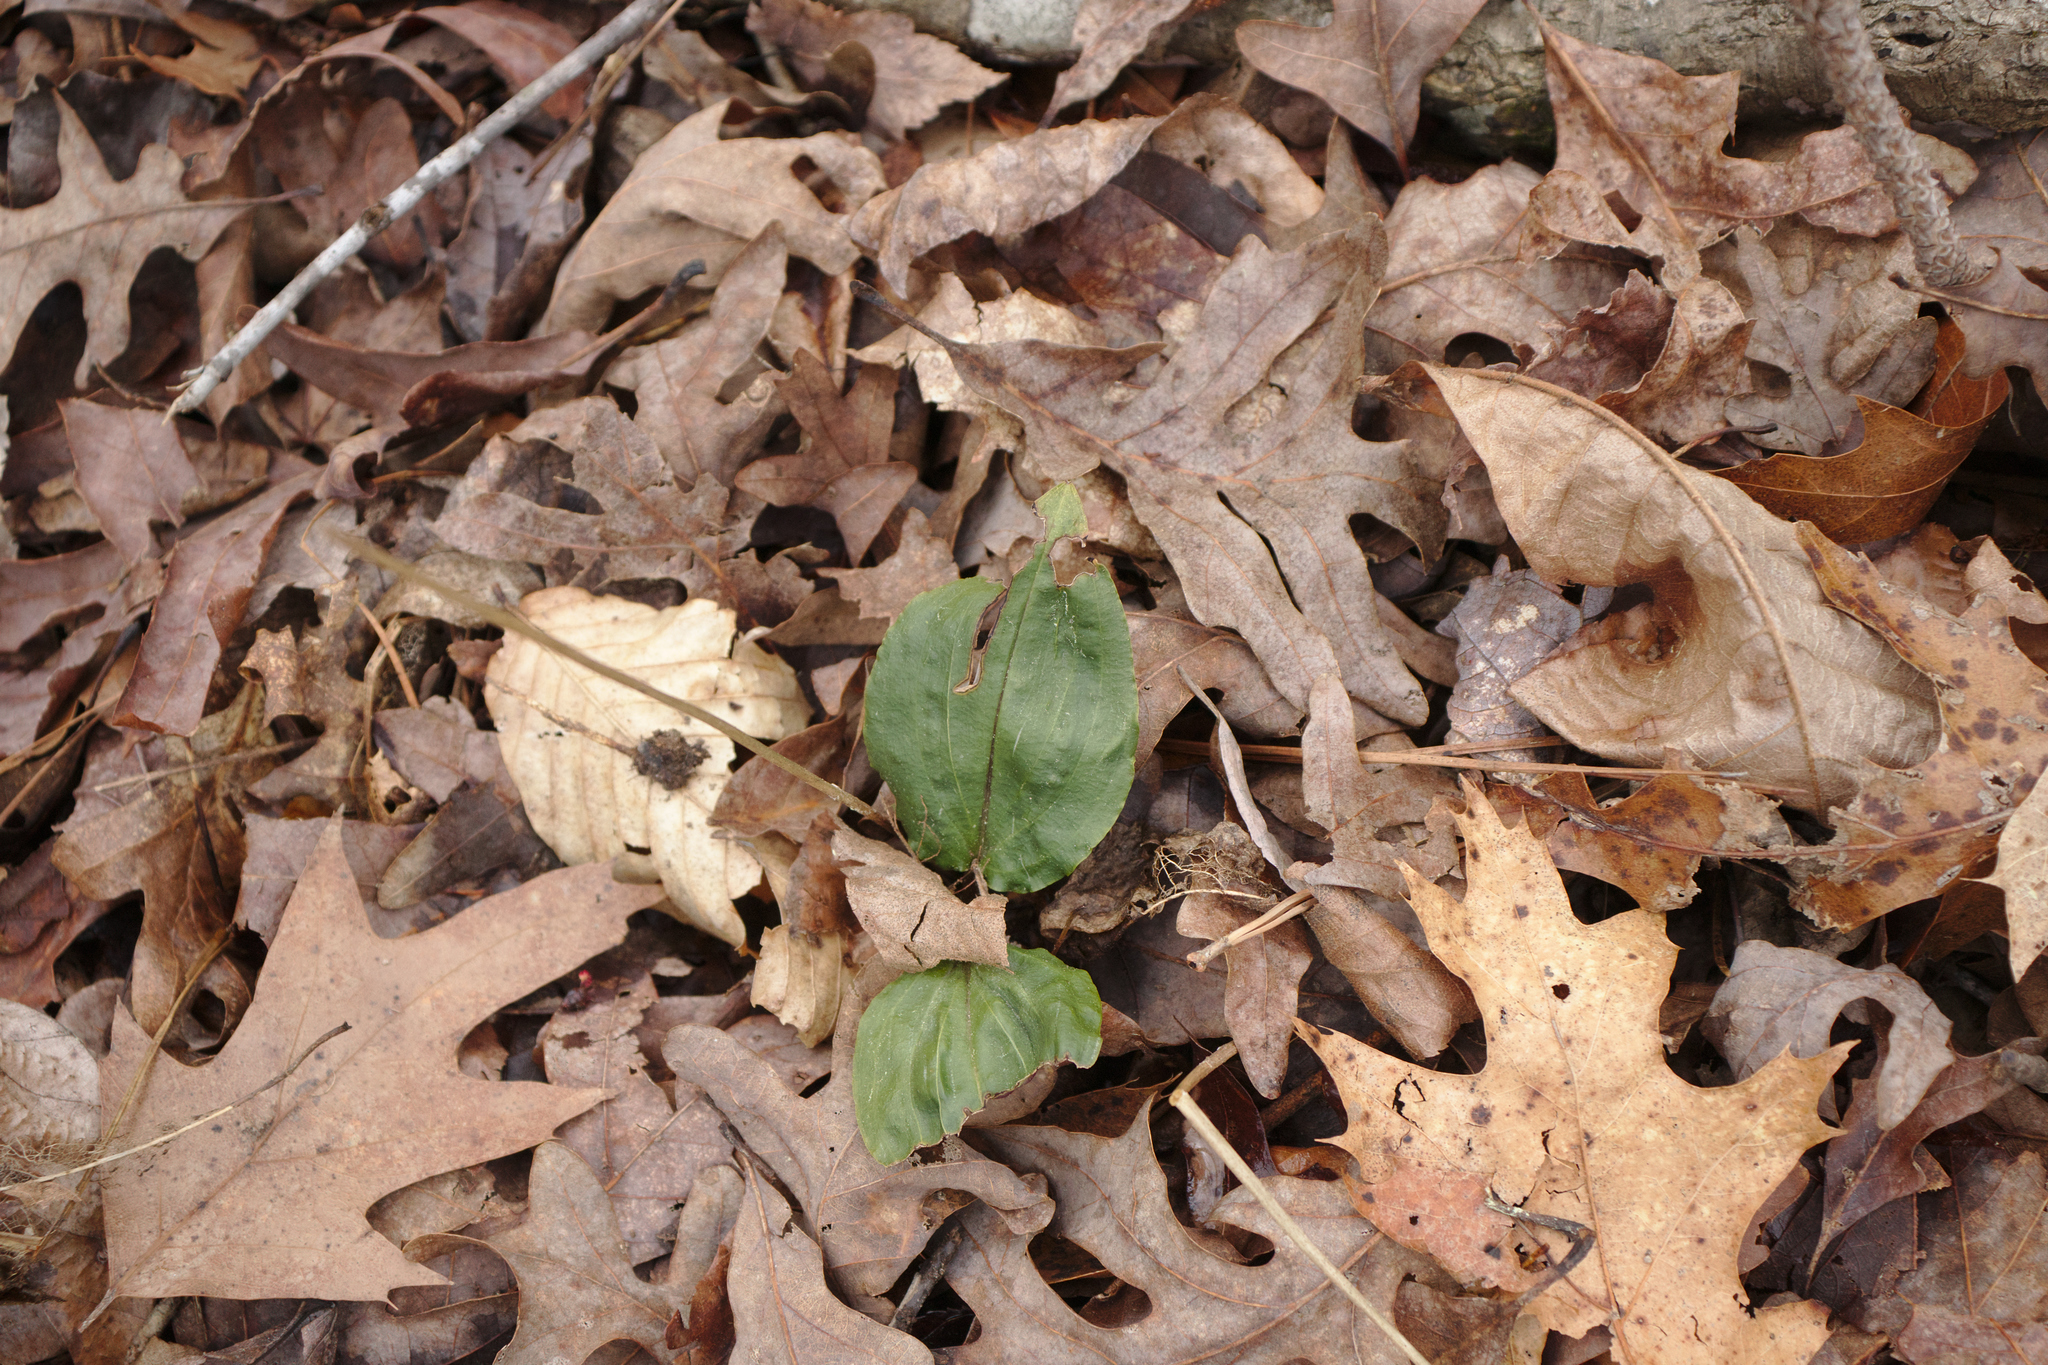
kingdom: Plantae
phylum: Tracheophyta
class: Liliopsida
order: Asparagales
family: Orchidaceae
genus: Tipularia
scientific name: Tipularia discolor
